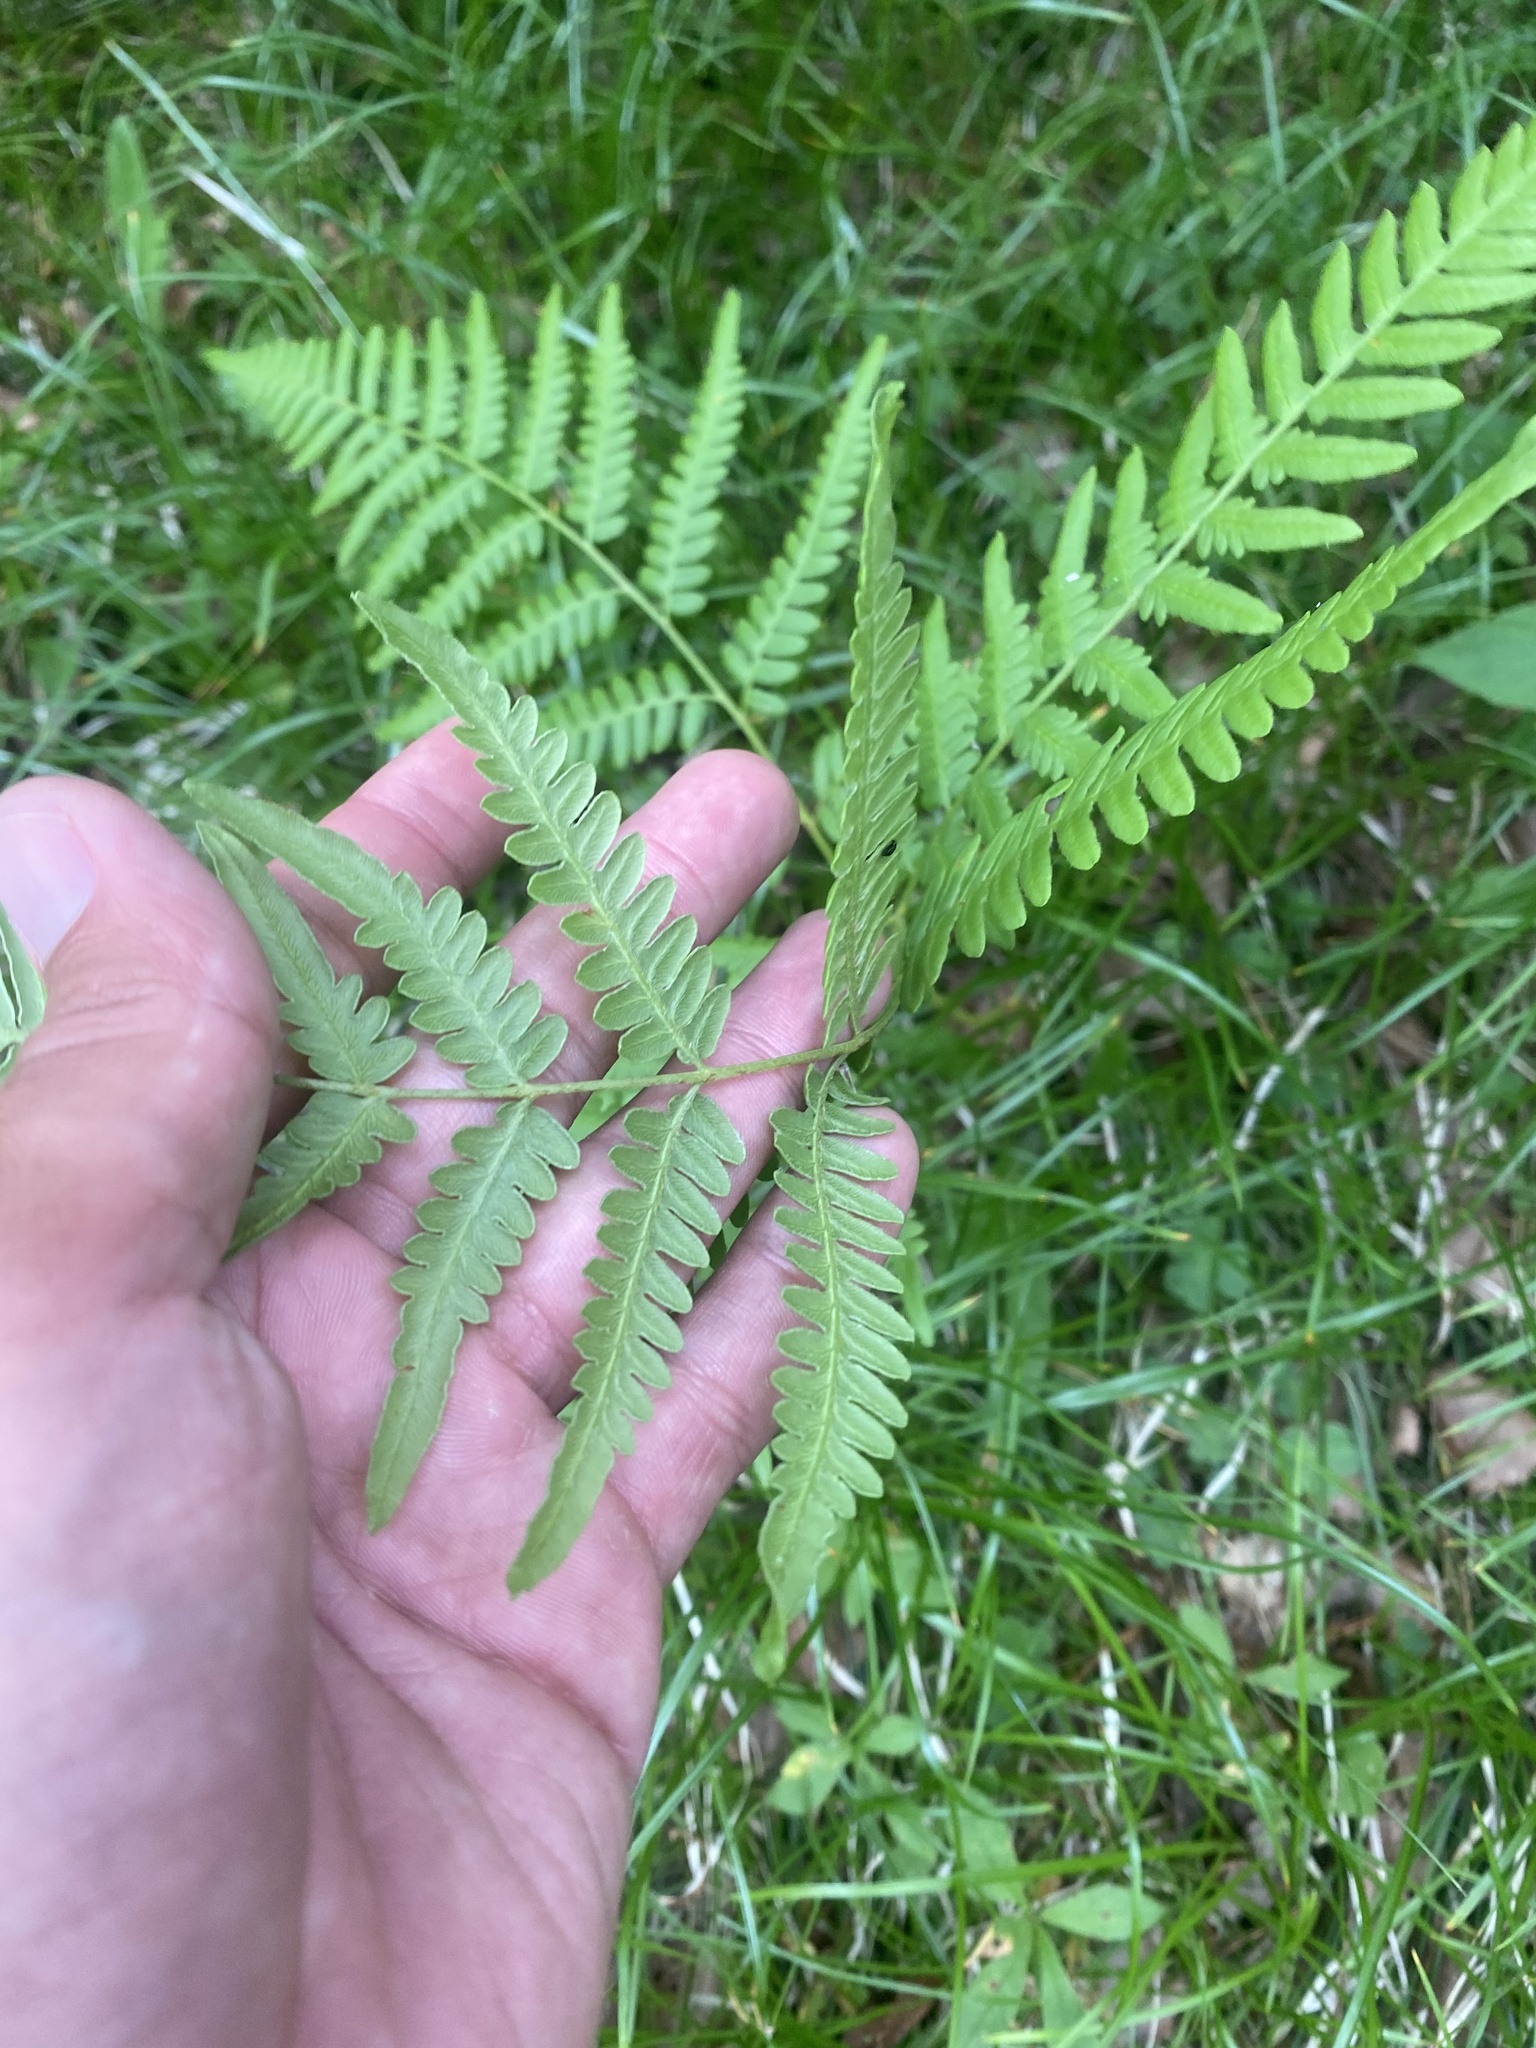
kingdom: Plantae
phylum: Tracheophyta
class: Polypodiopsida
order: Polypodiales
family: Dennstaedtiaceae
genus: Pteridium
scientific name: Pteridium aquilinum
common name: Bracken
